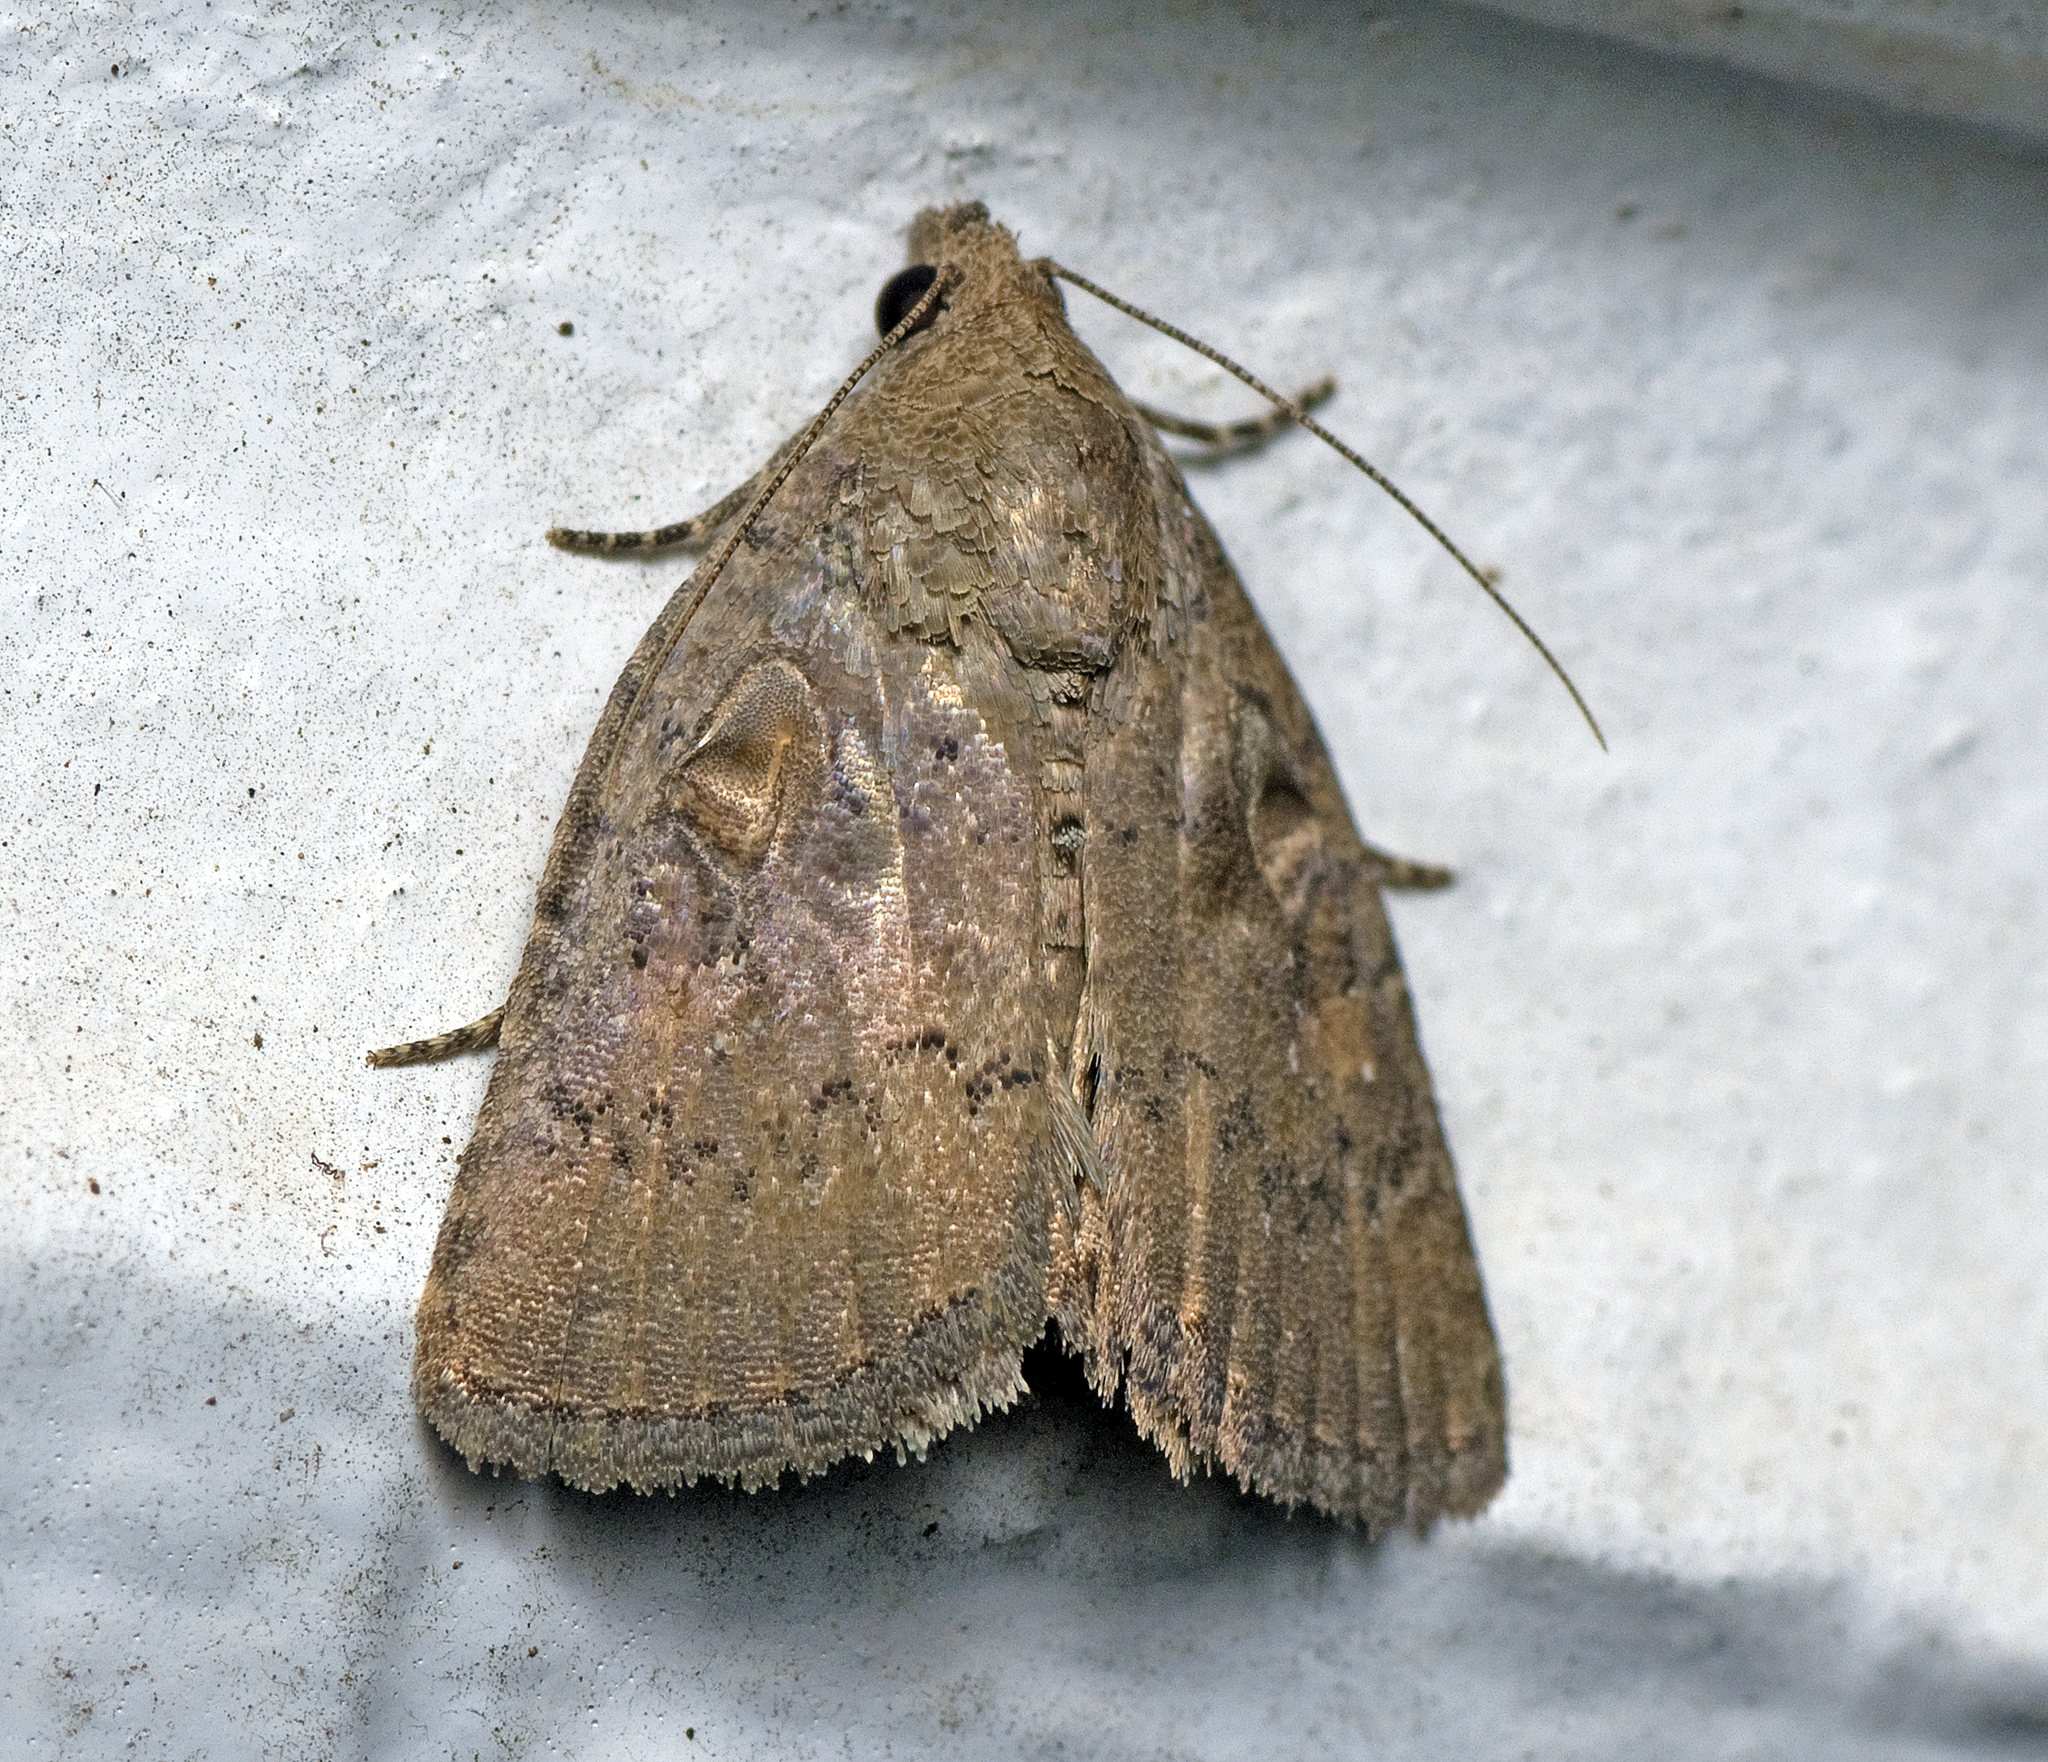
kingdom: Animalia
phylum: Arthropoda
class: Insecta
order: Lepidoptera
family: Noctuidae
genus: Amyna
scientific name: Amyna natalis
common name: Iiima moth
